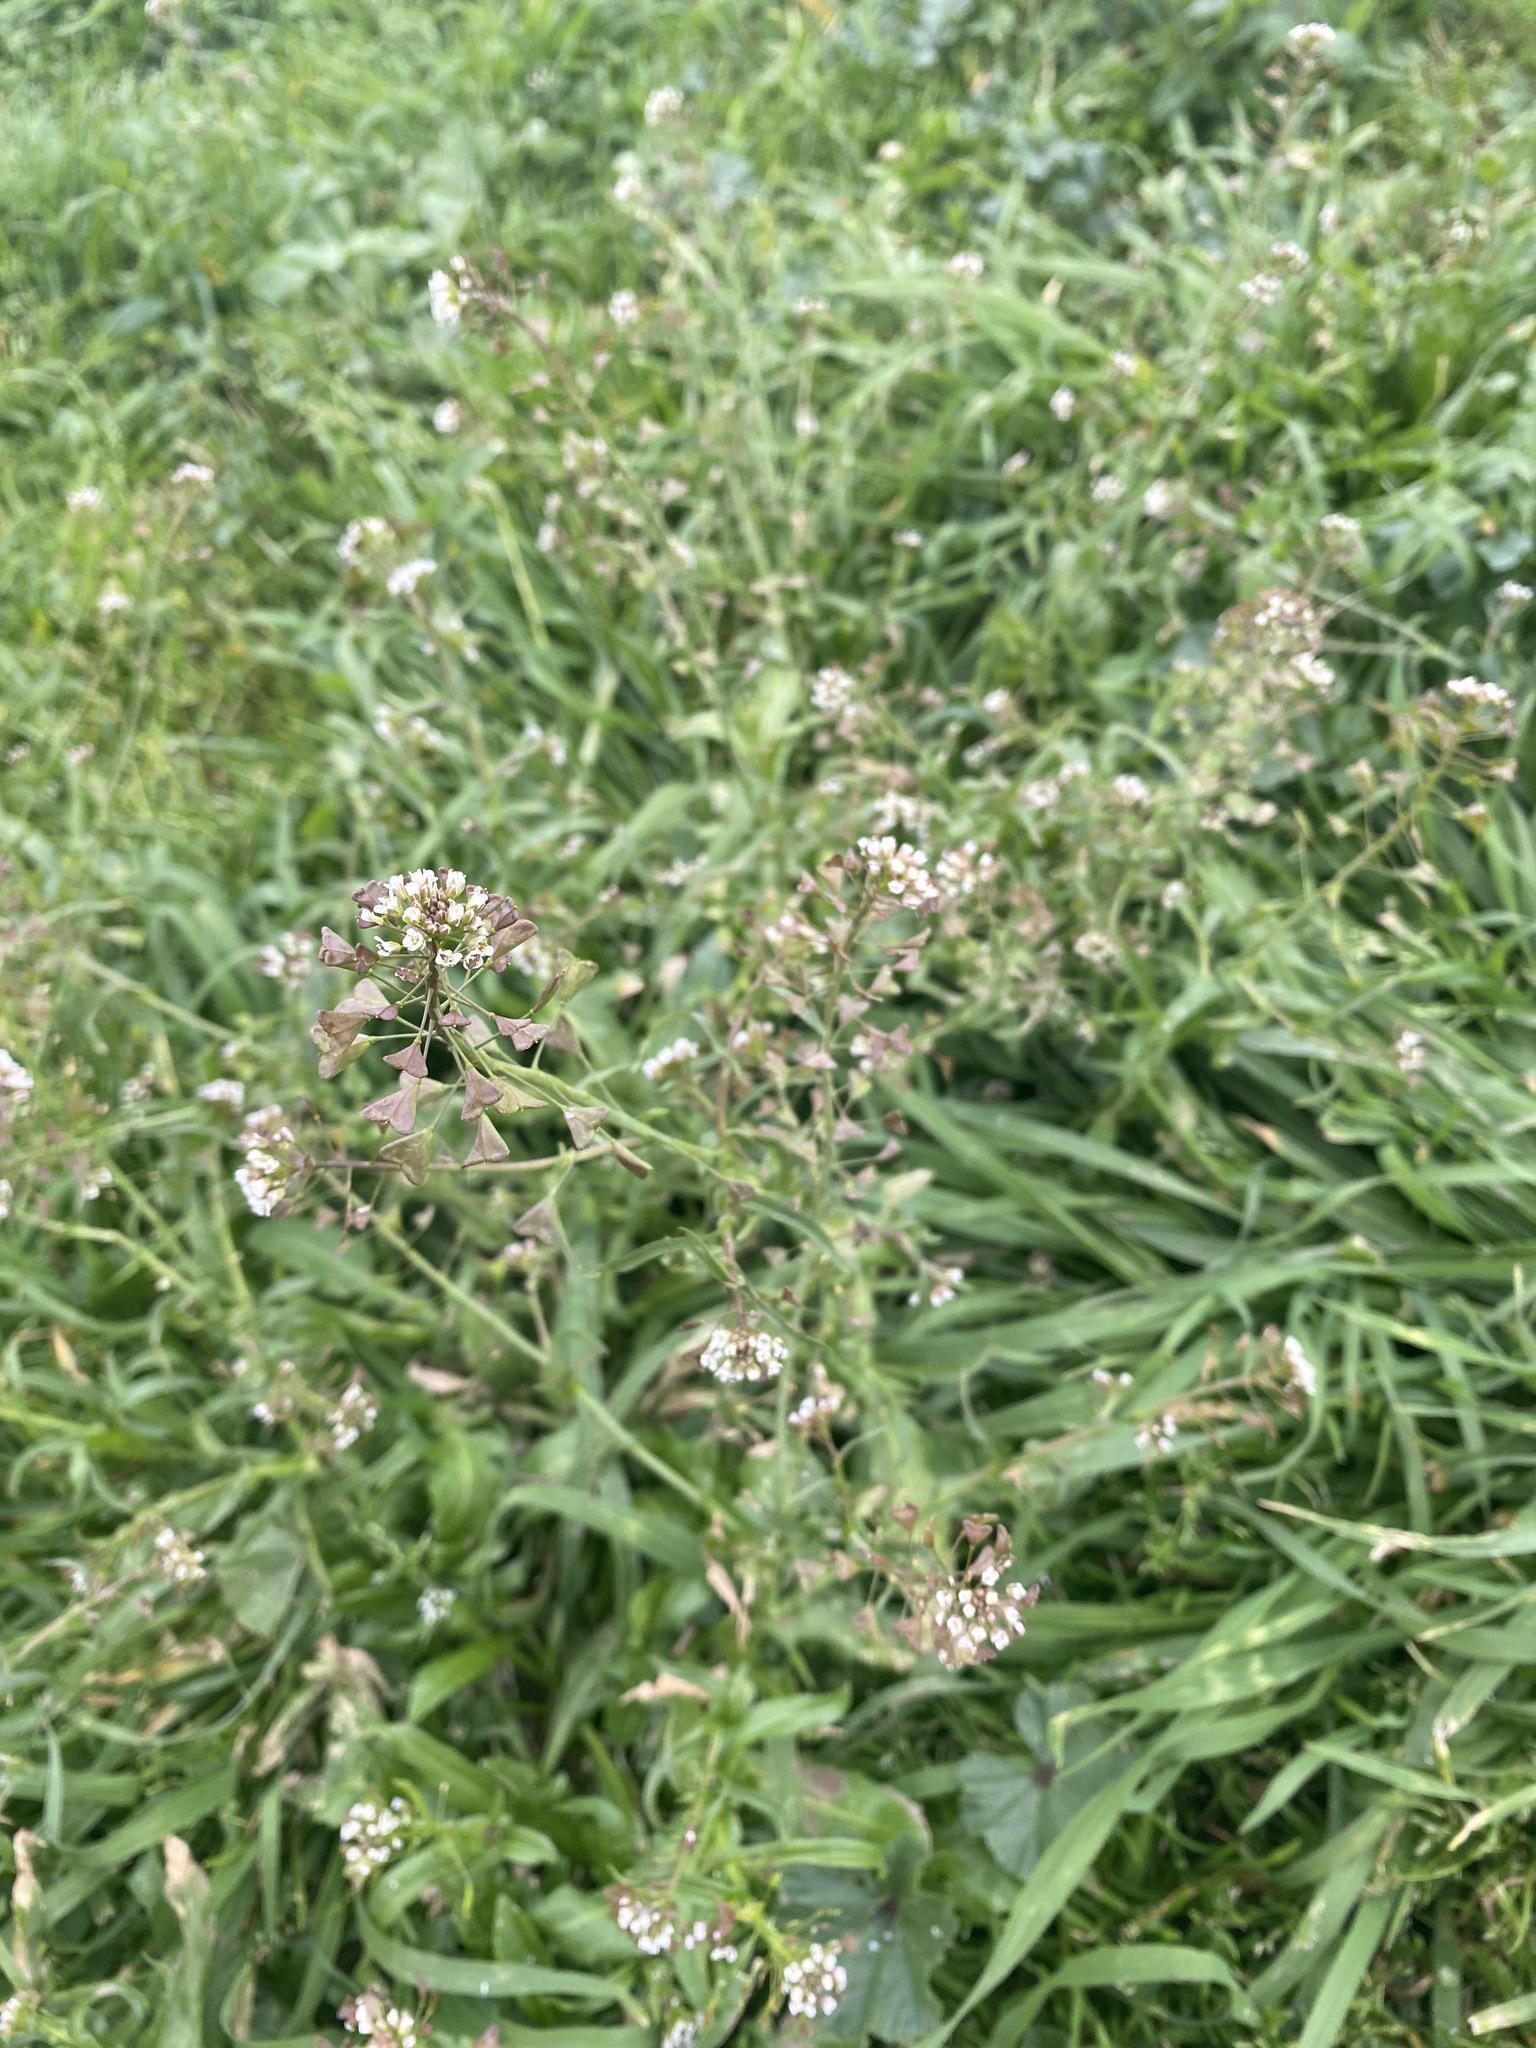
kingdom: Plantae
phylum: Tracheophyta
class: Magnoliopsida
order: Brassicales
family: Brassicaceae
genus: Capsella
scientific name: Capsella bursa-pastoris
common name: Shepherd's purse
